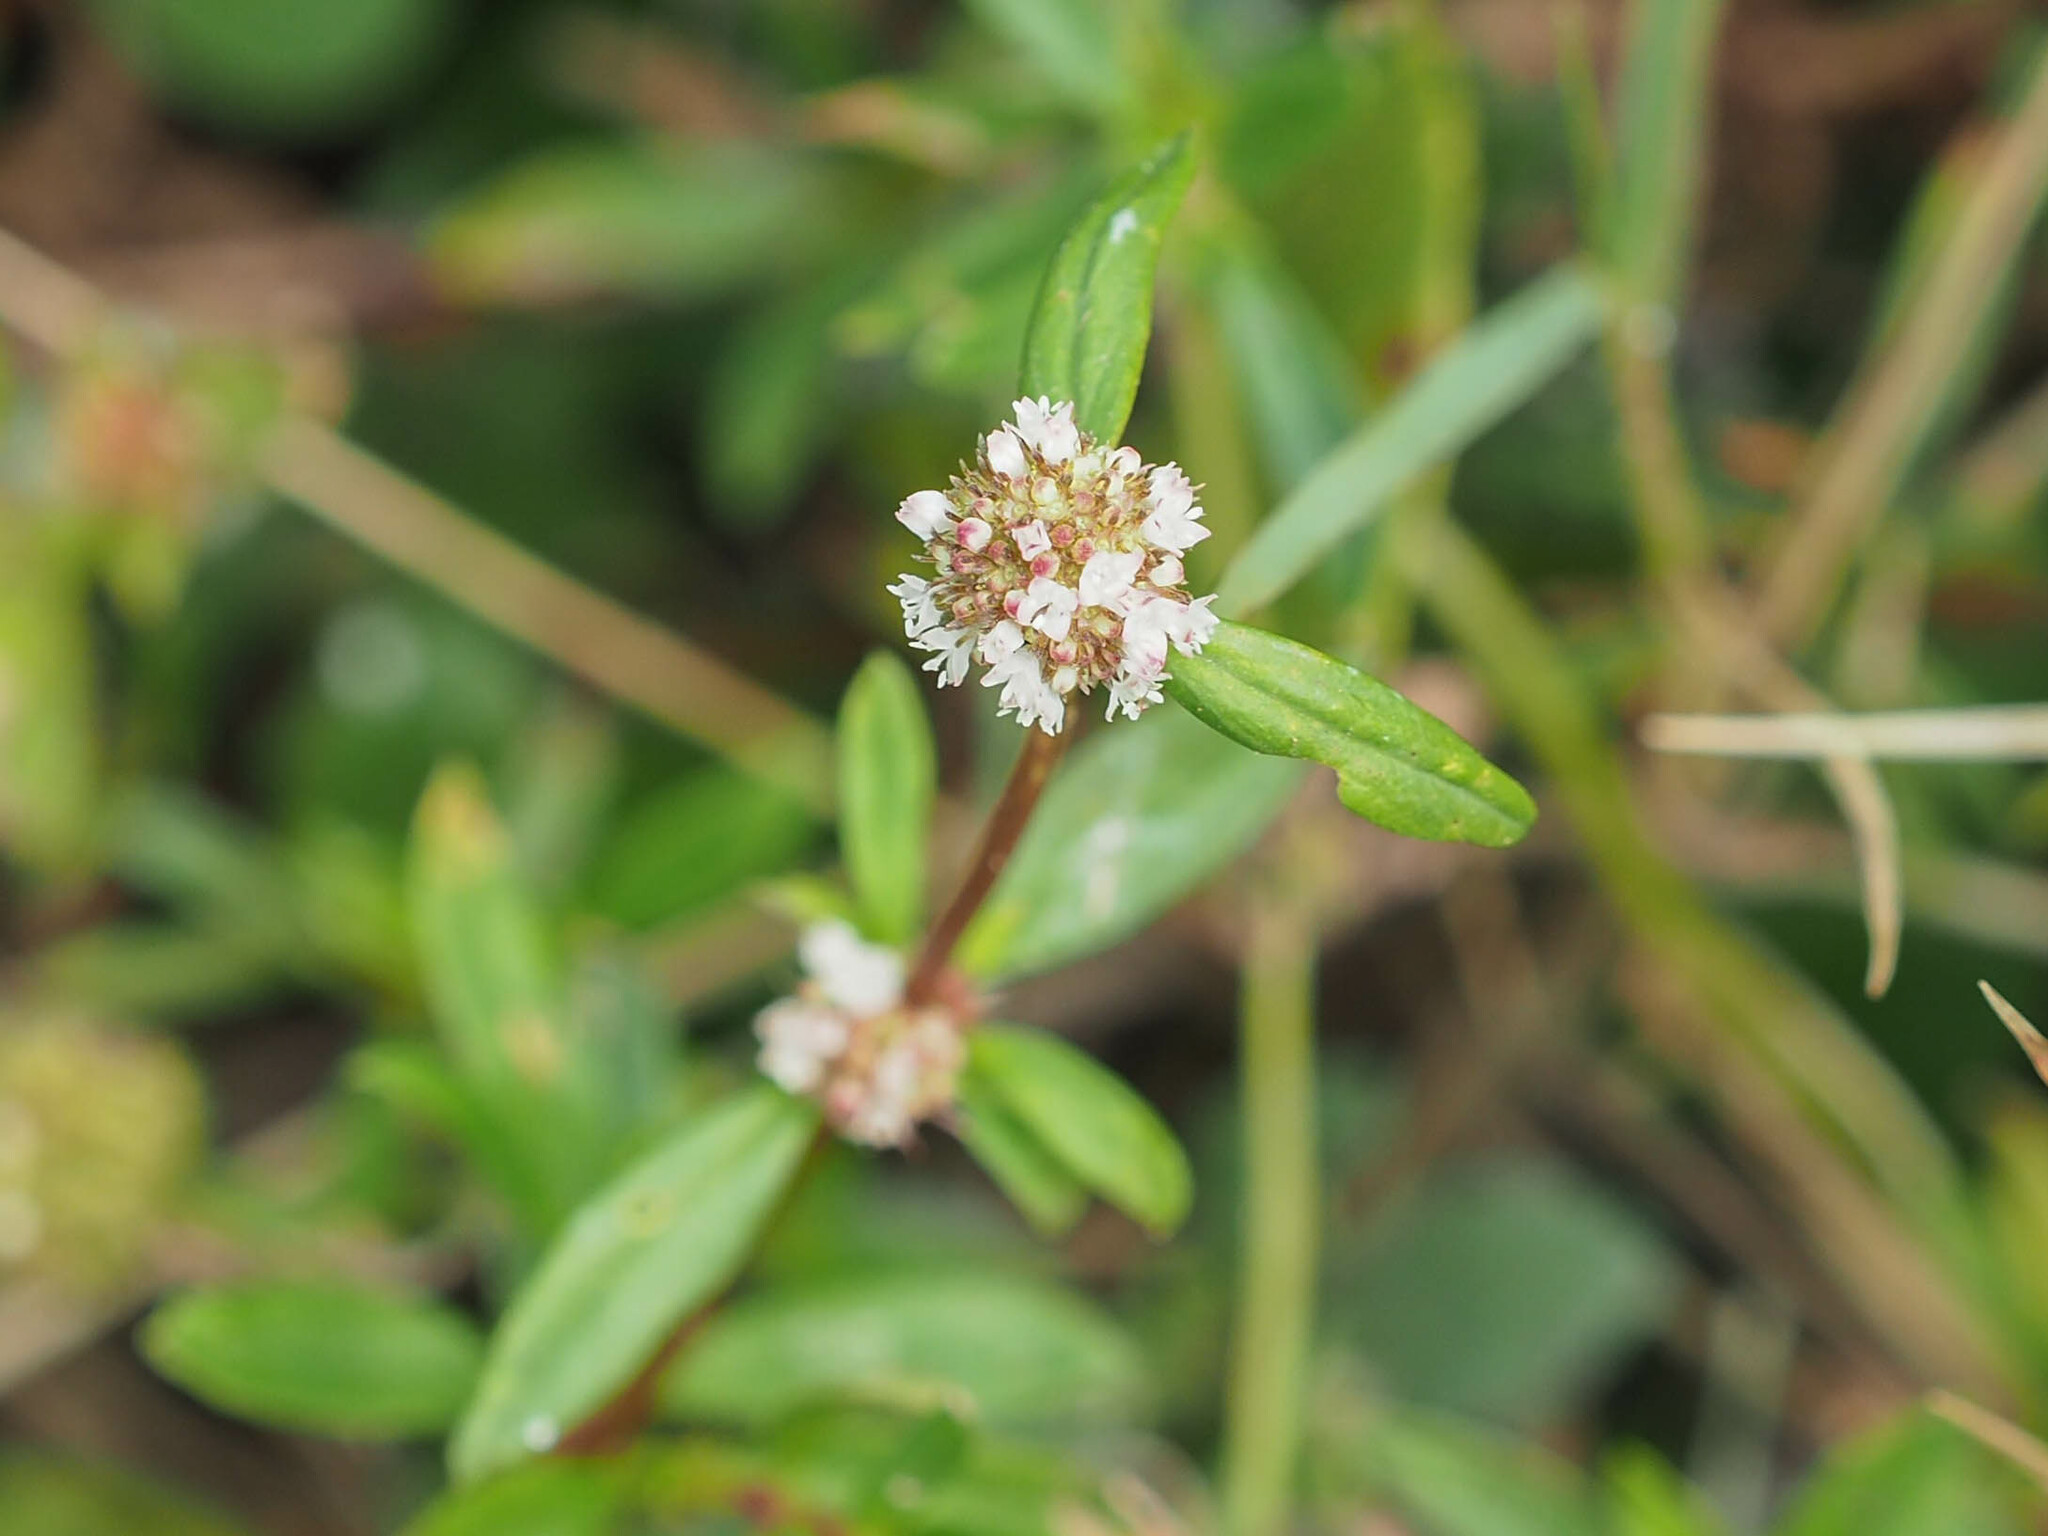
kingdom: Plantae
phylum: Tracheophyta
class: Magnoliopsida
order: Gentianales
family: Rubiaceae
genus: Spermacoce
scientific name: Spermacoce verticillata
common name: Shrubby false buttonweed
